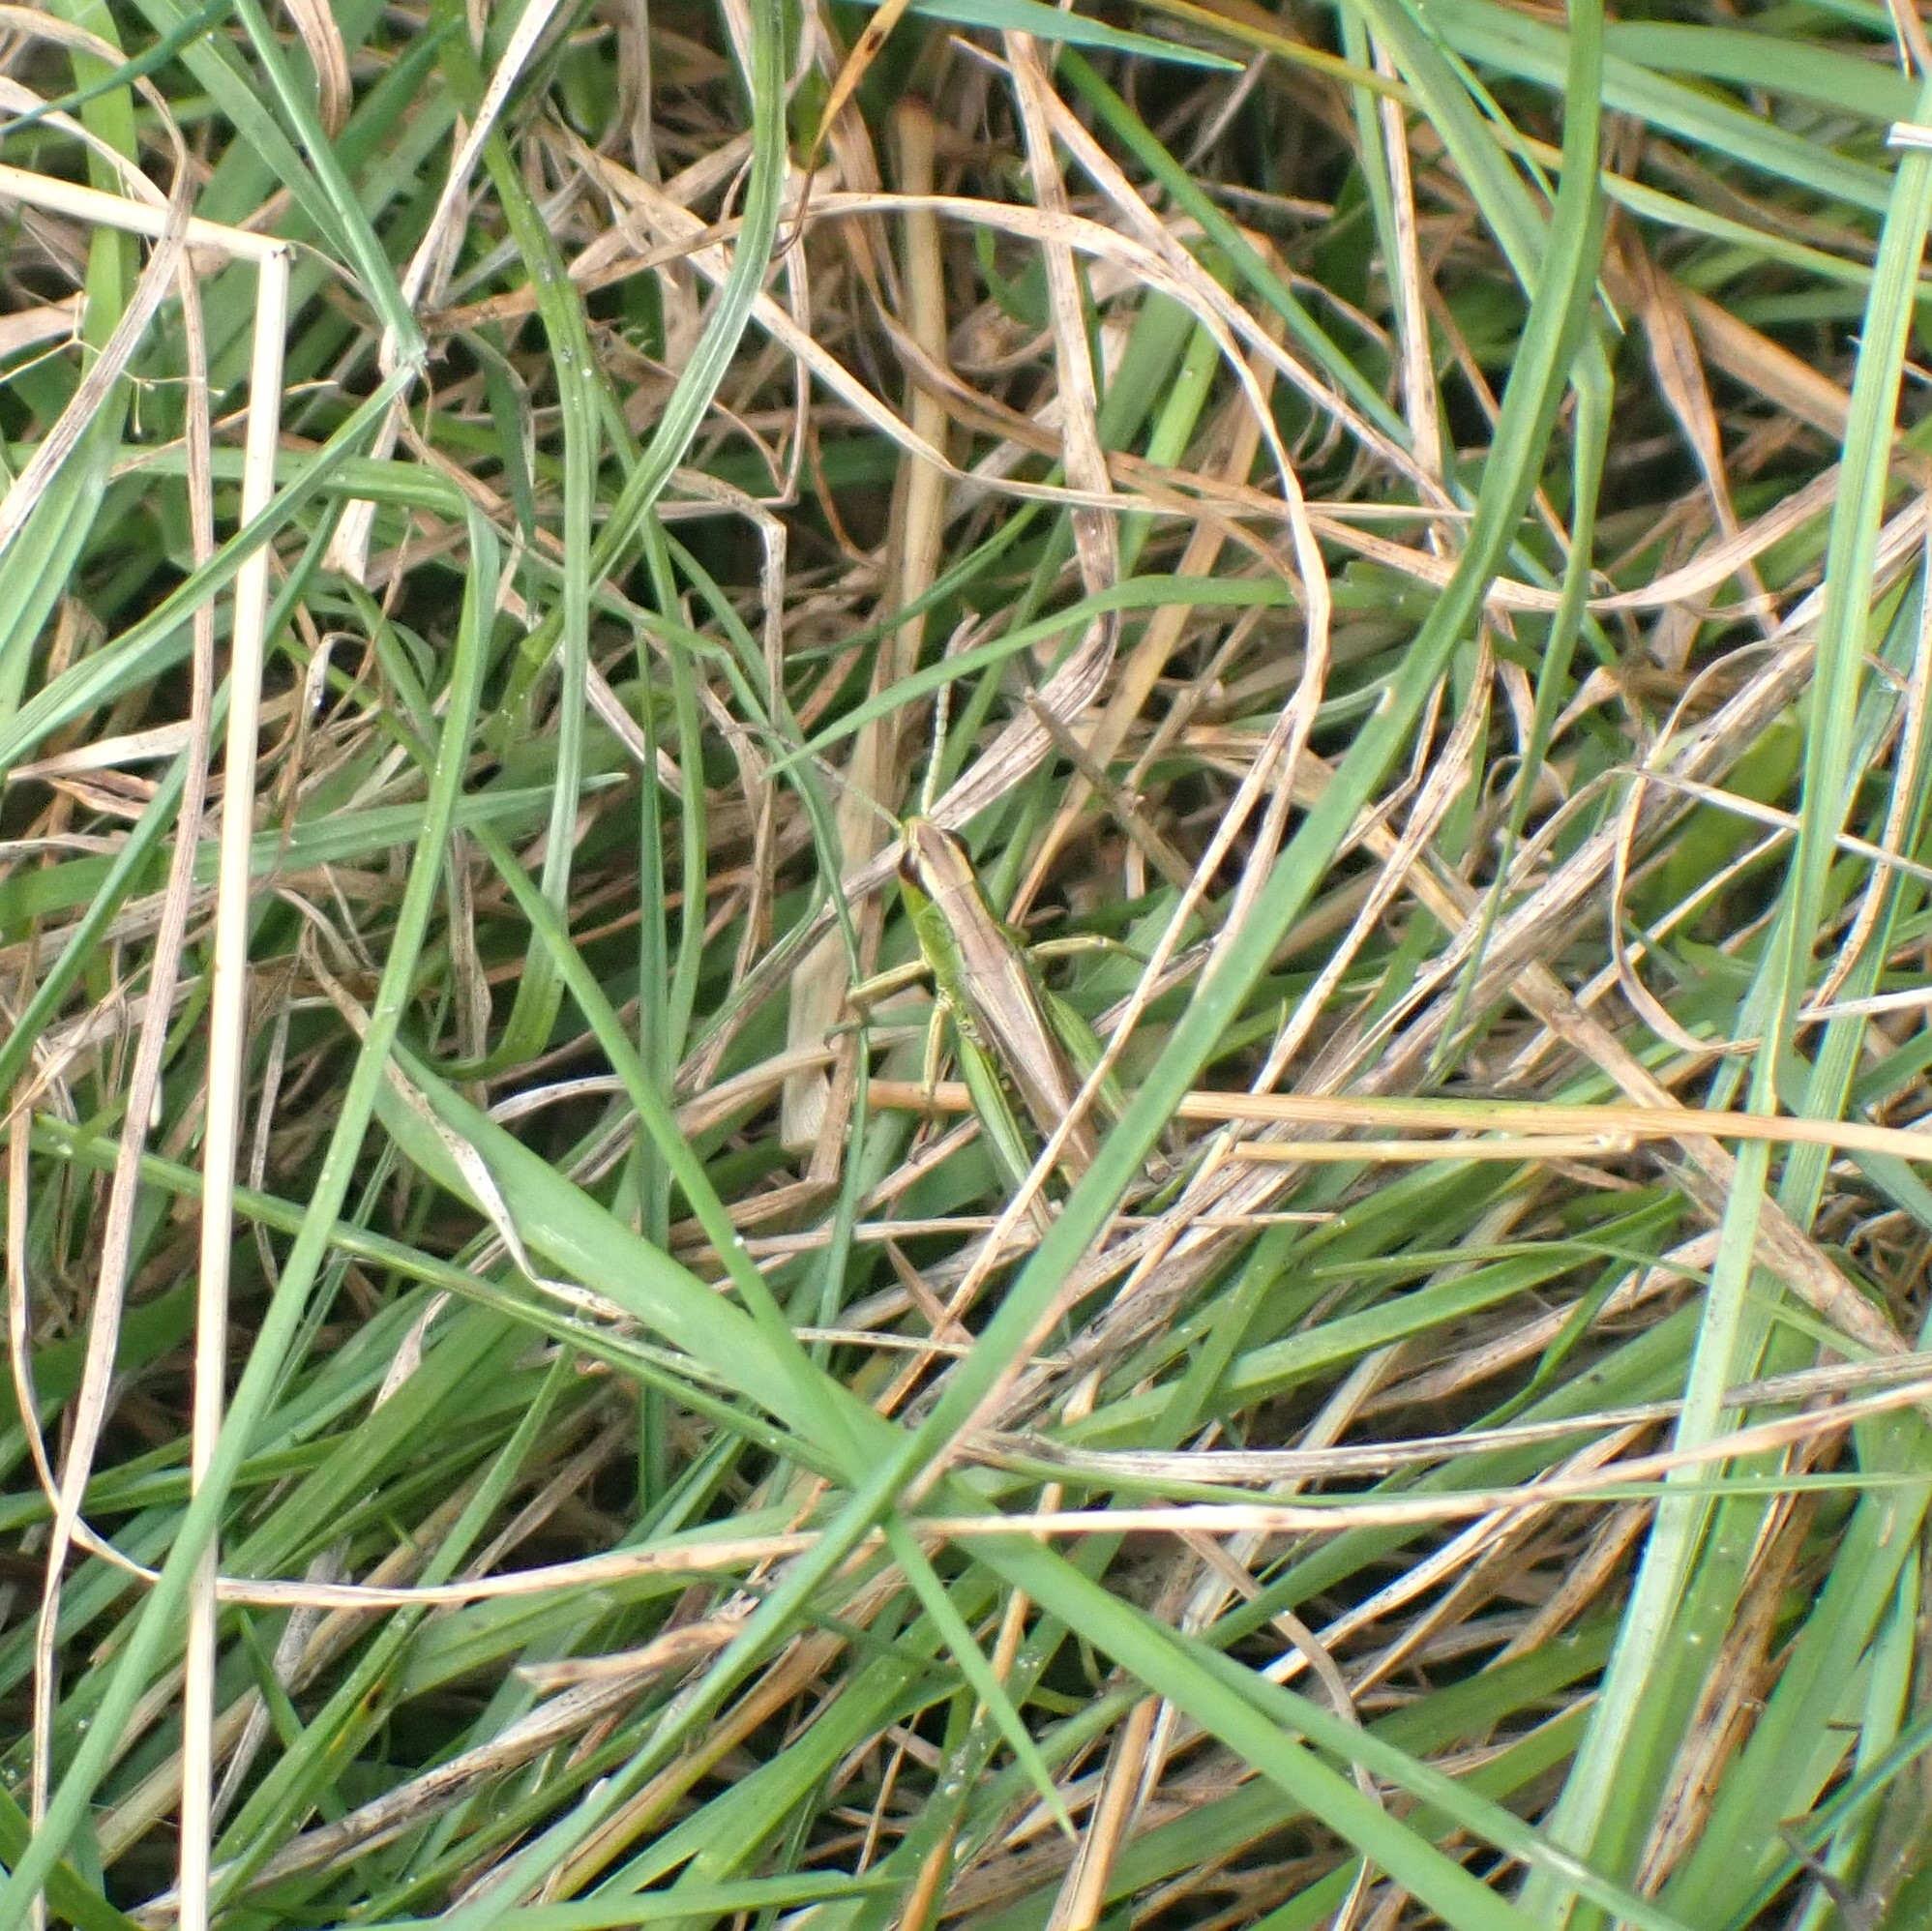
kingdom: Animalia
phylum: Arthropoda
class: Insecta
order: Orthoptera
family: Acrididae
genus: Pseudochorthippus
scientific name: Pseudochorthippus parallelus
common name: Meadow grasshopper
